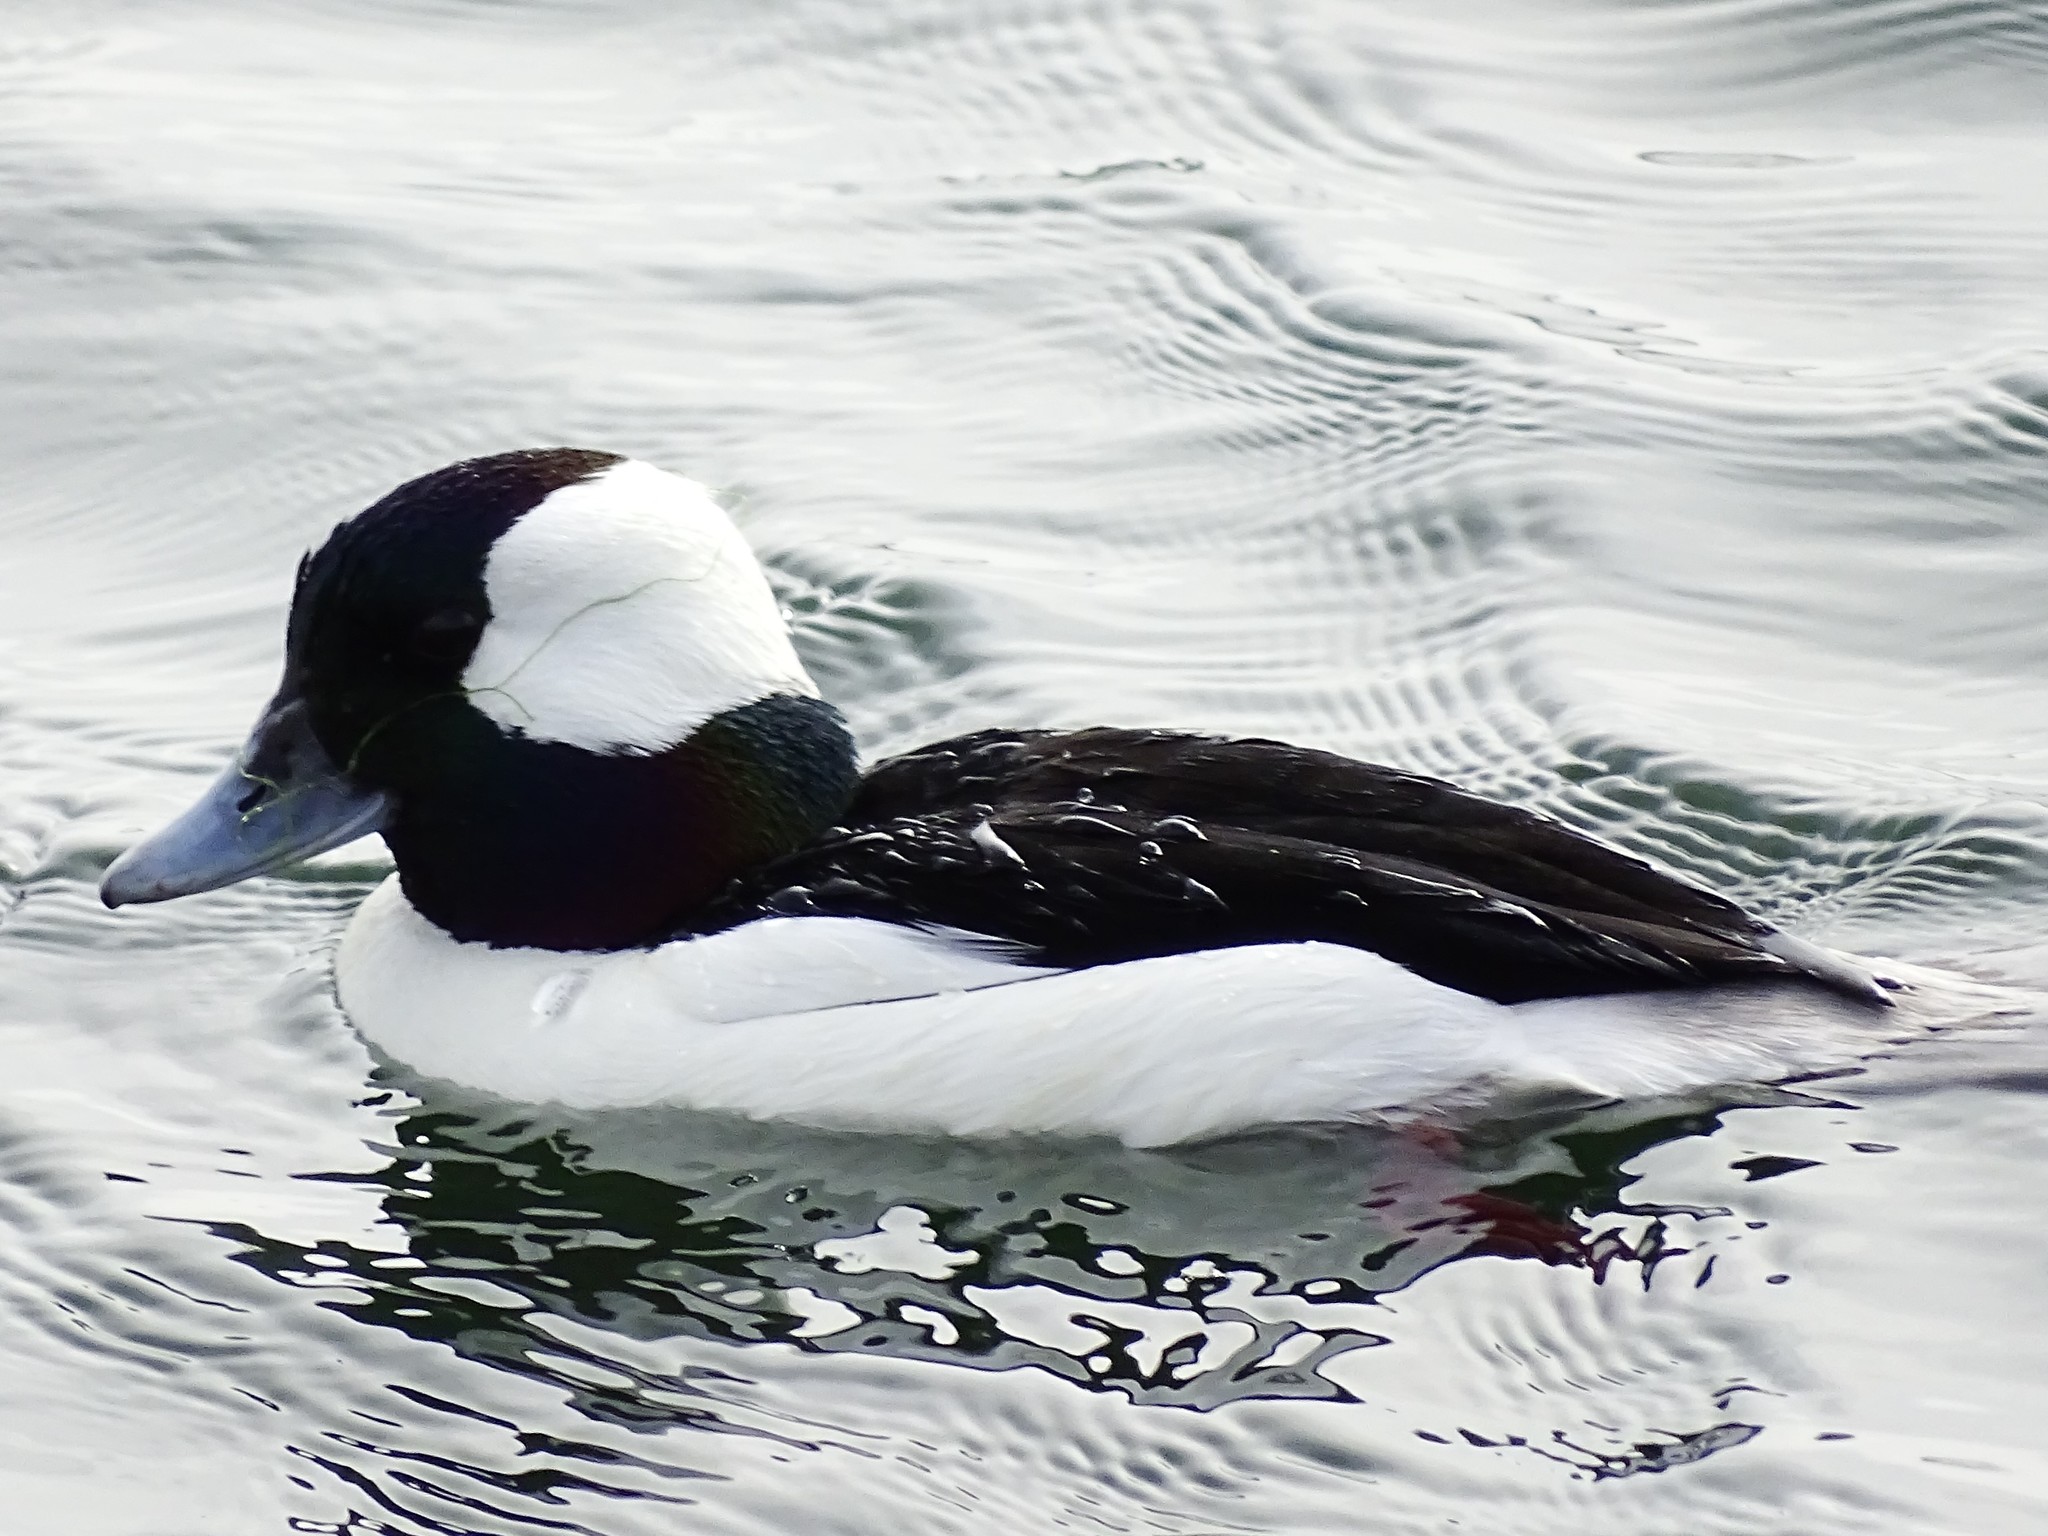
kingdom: Animalia
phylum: Chordata
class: Aves
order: Anseriformes
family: Anatidae
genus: Bucephala
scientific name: Bucephala albeola
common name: Bufflehead
